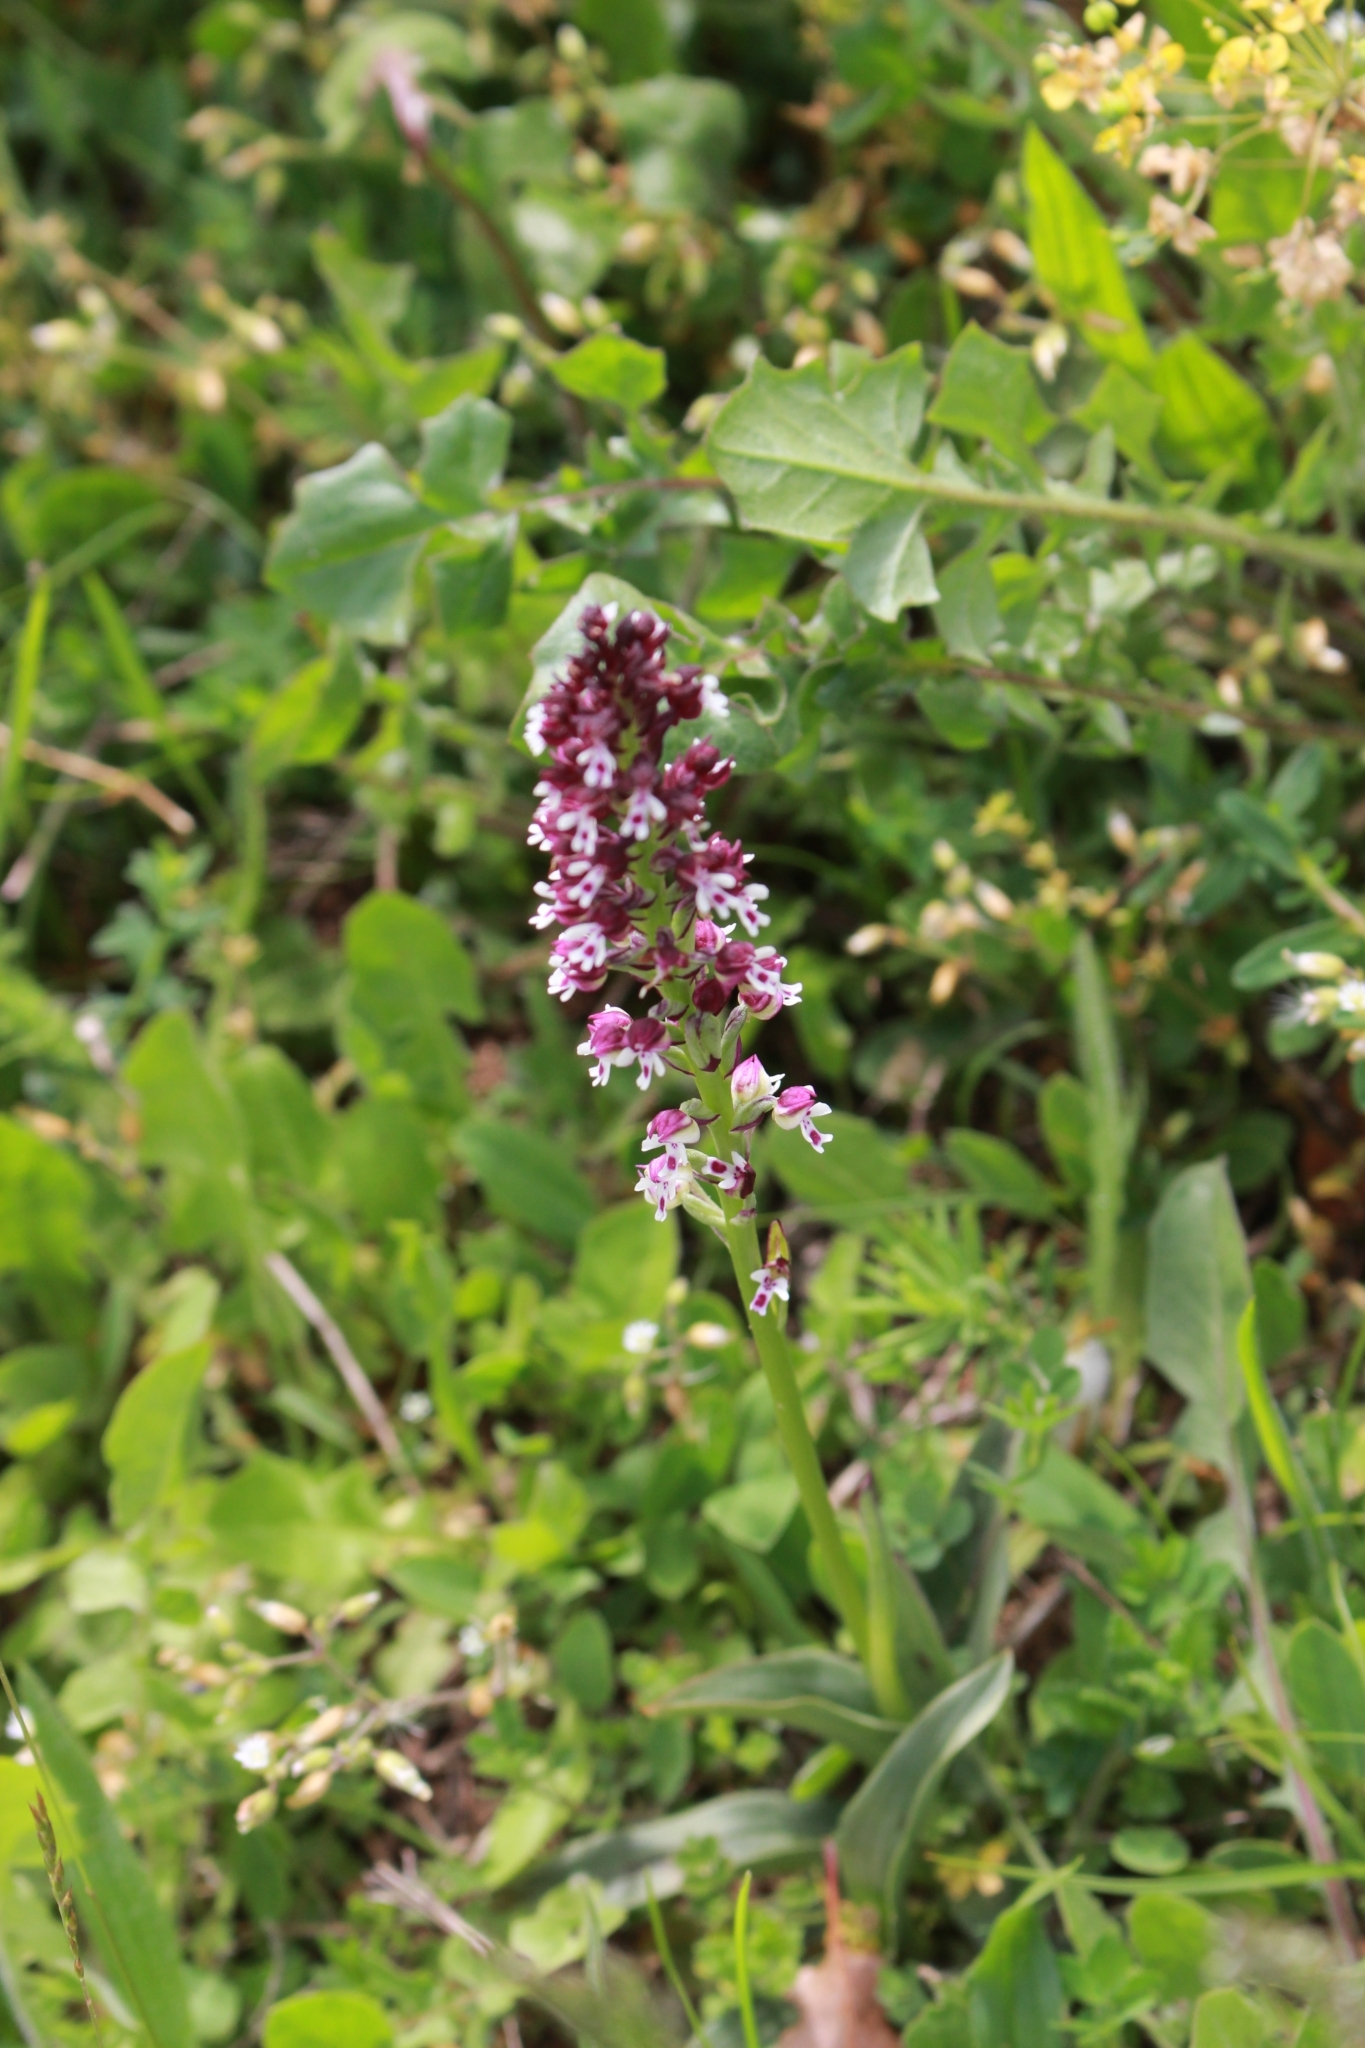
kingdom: Plantae
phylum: Tracheophyta
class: Liliopsida
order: Asparagales
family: Orchidaceae
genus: Neotinea
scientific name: Neotinea ustulata
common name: Burnt orchid
